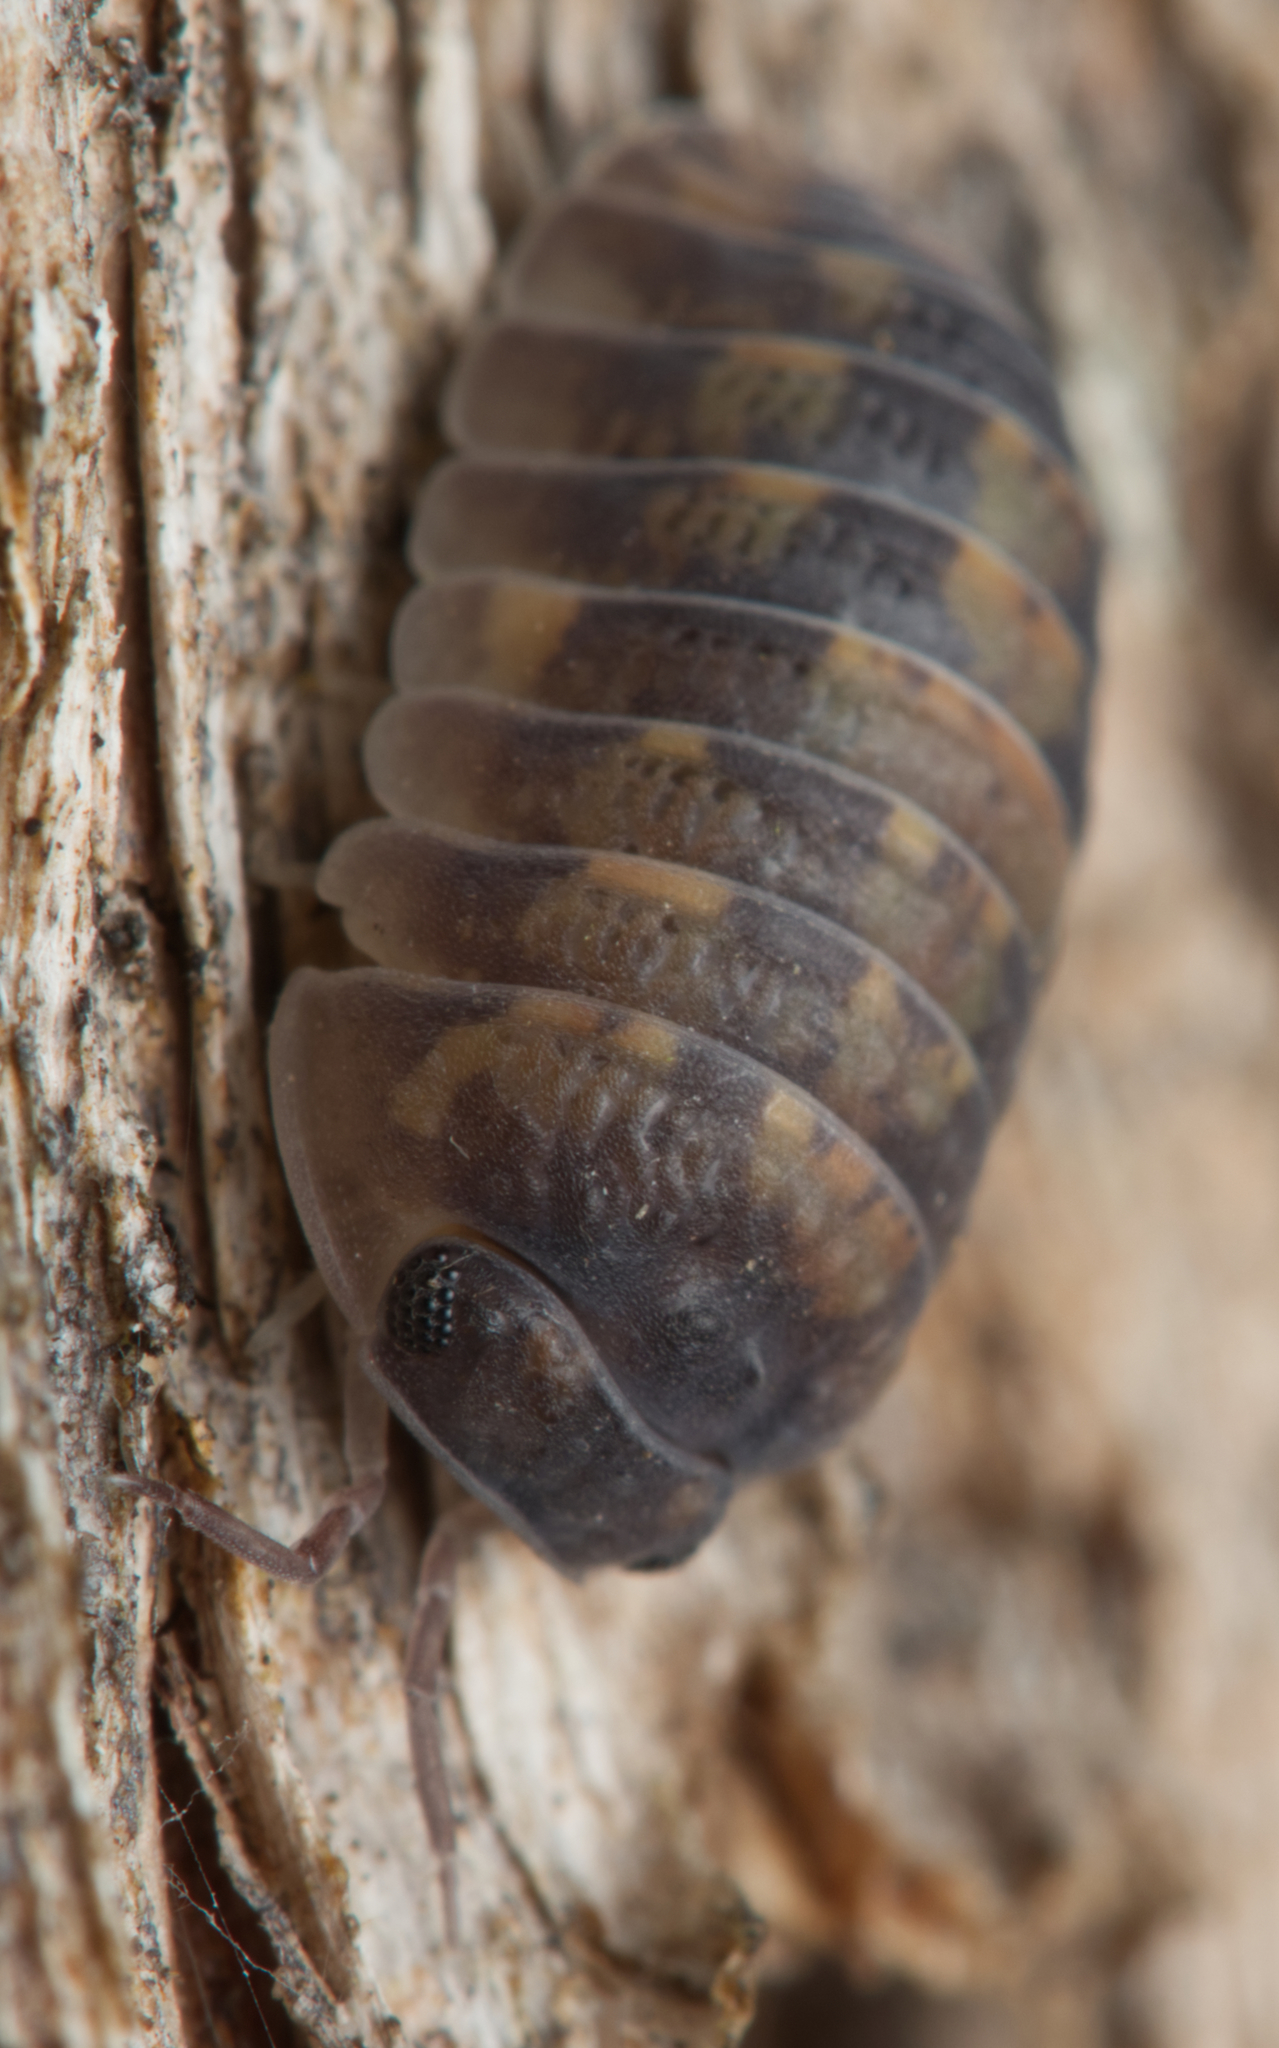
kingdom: Animalia
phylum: Arthropoda
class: Malacostraca
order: Isopoda
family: Armadillidae
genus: Cubaris
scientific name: Cubaris nigroflava
